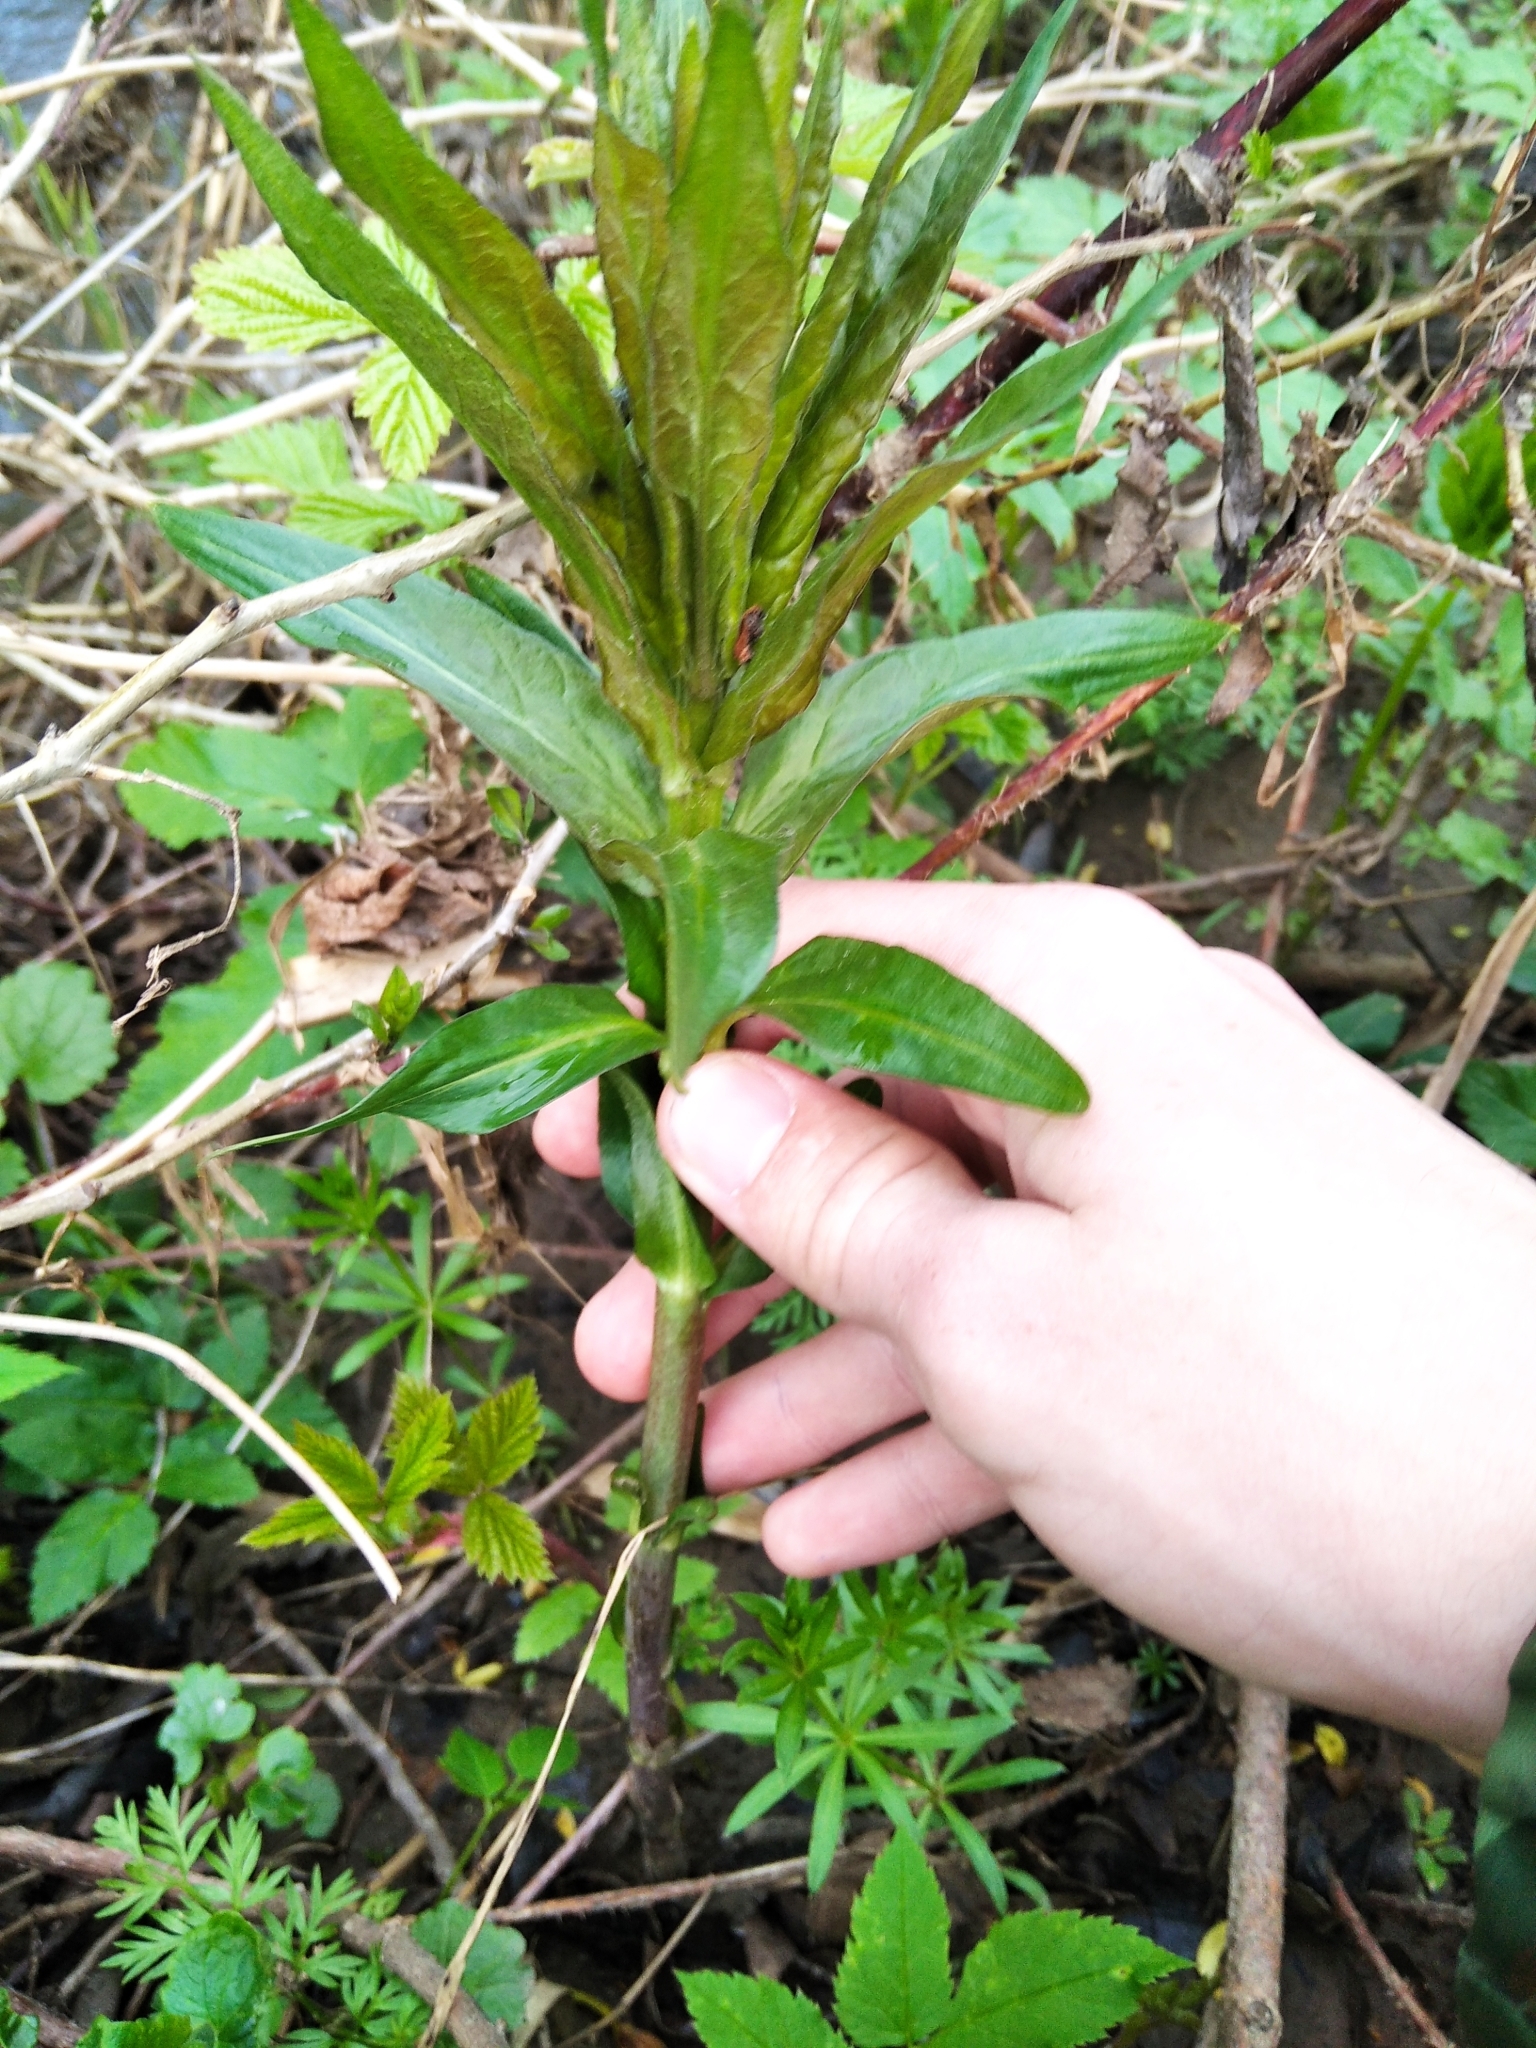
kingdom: Plantae
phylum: Tracheophyta
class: Magnoliopsida
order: Ericales
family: Primulaceae
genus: Lysimachia
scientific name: Lysimachia vulgaris
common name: Yellow loosestrife
